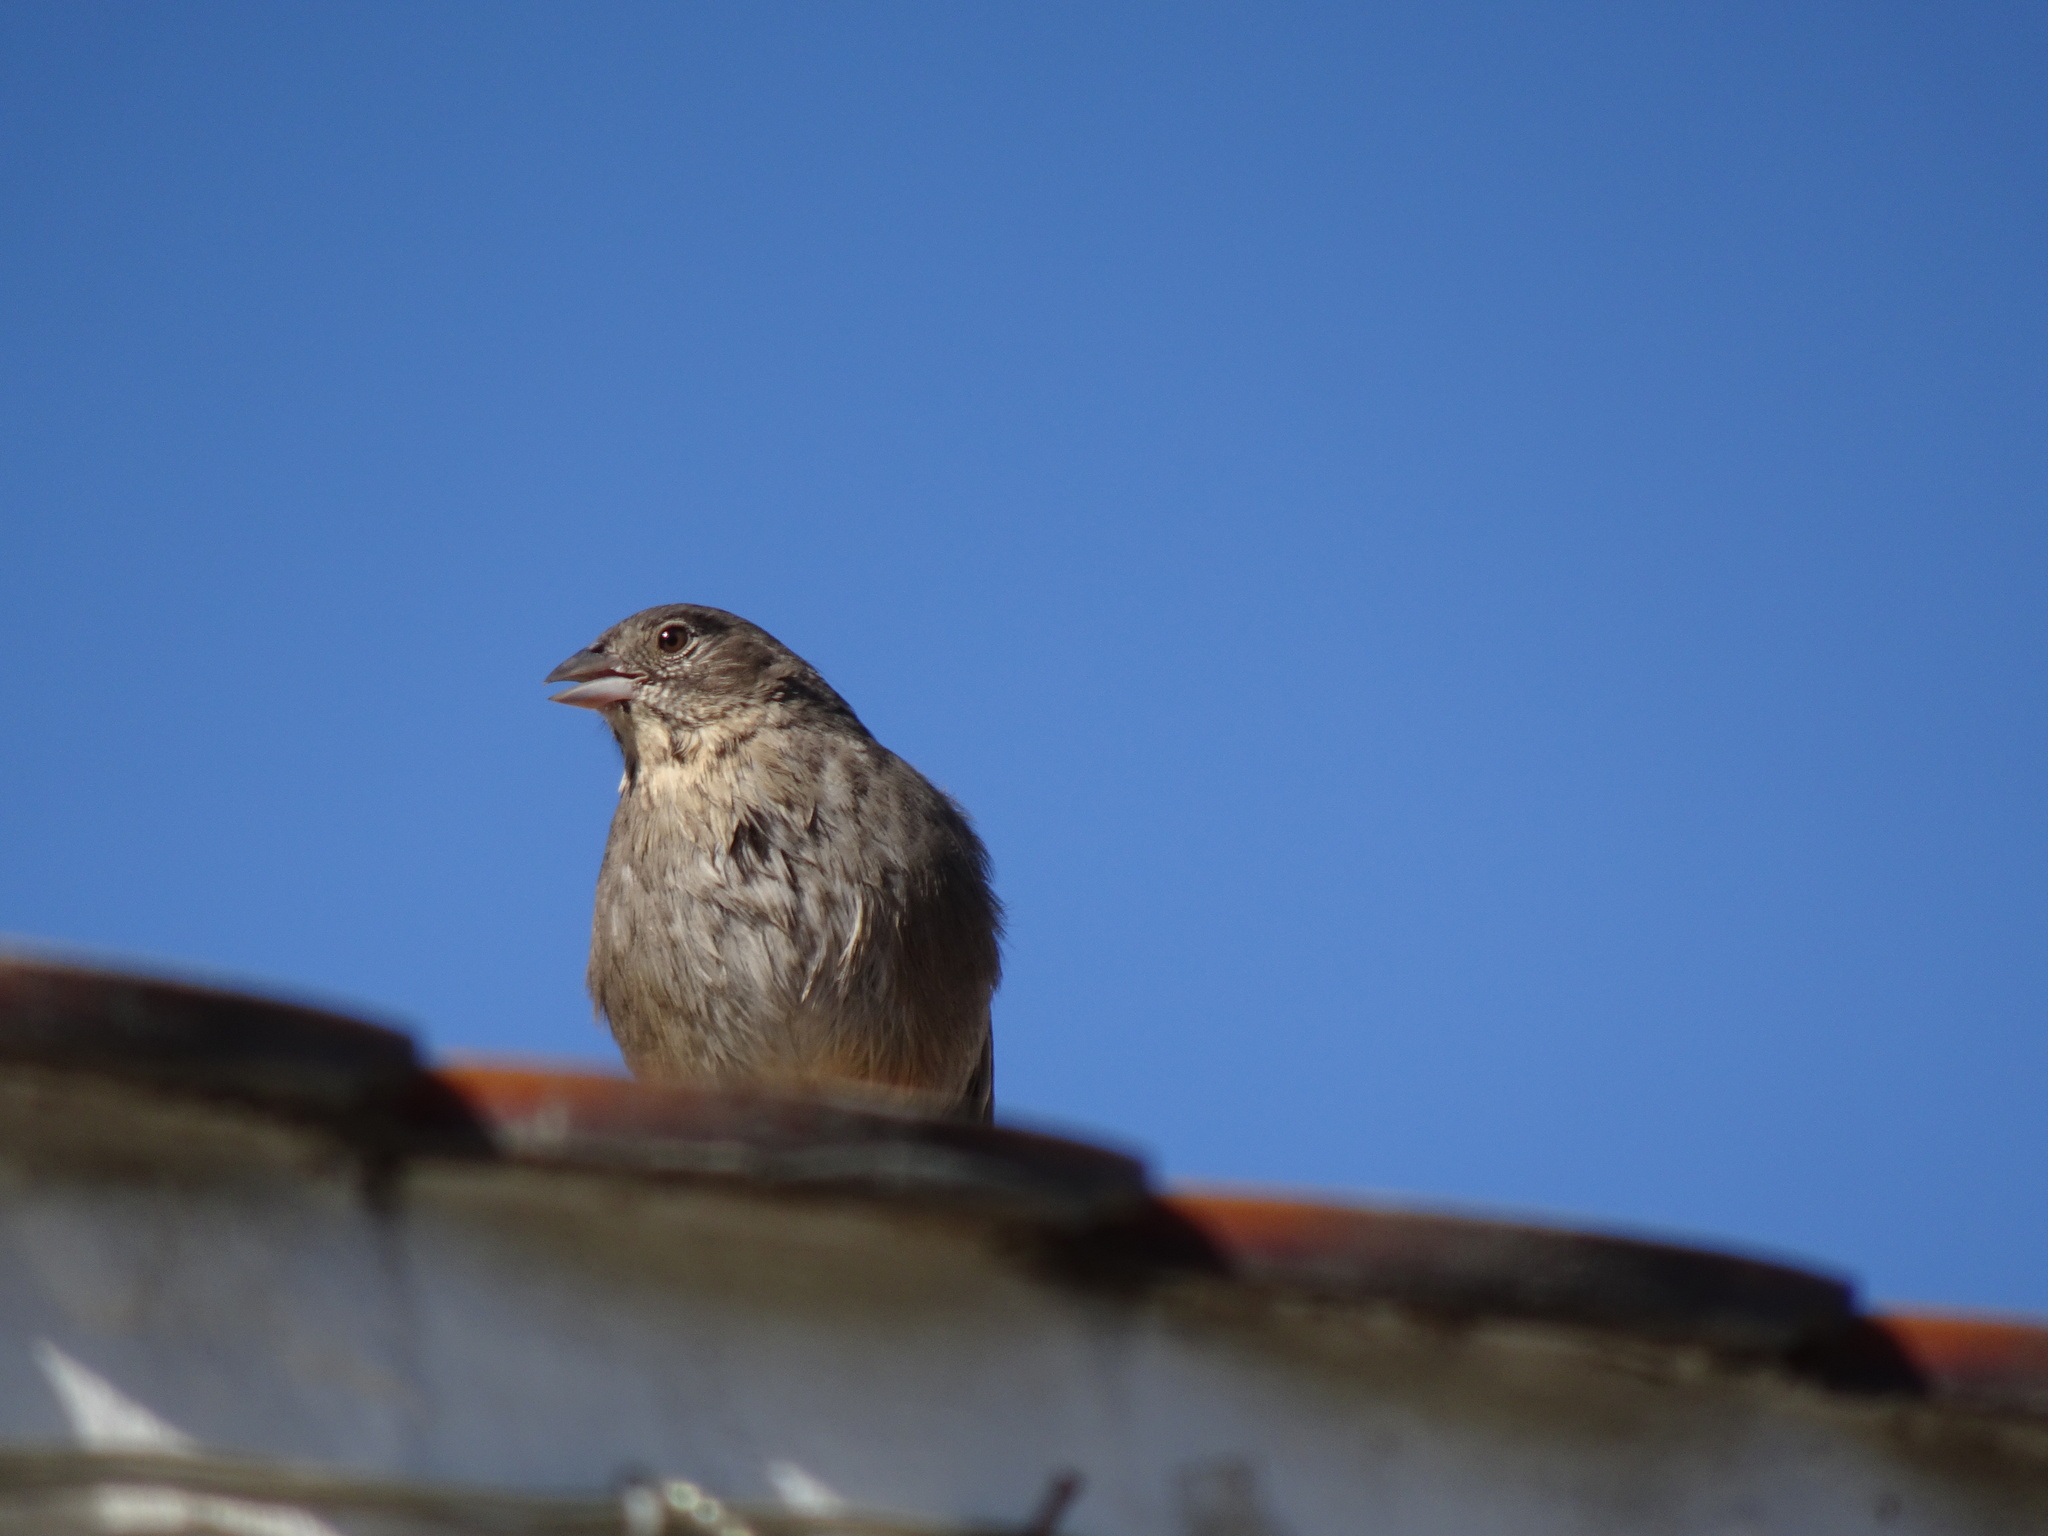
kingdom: Animalia
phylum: Chordata
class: Aves
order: Passeriformes
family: Passerellidae
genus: Melozone
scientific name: Melozone fusca
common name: Canyon towhee
